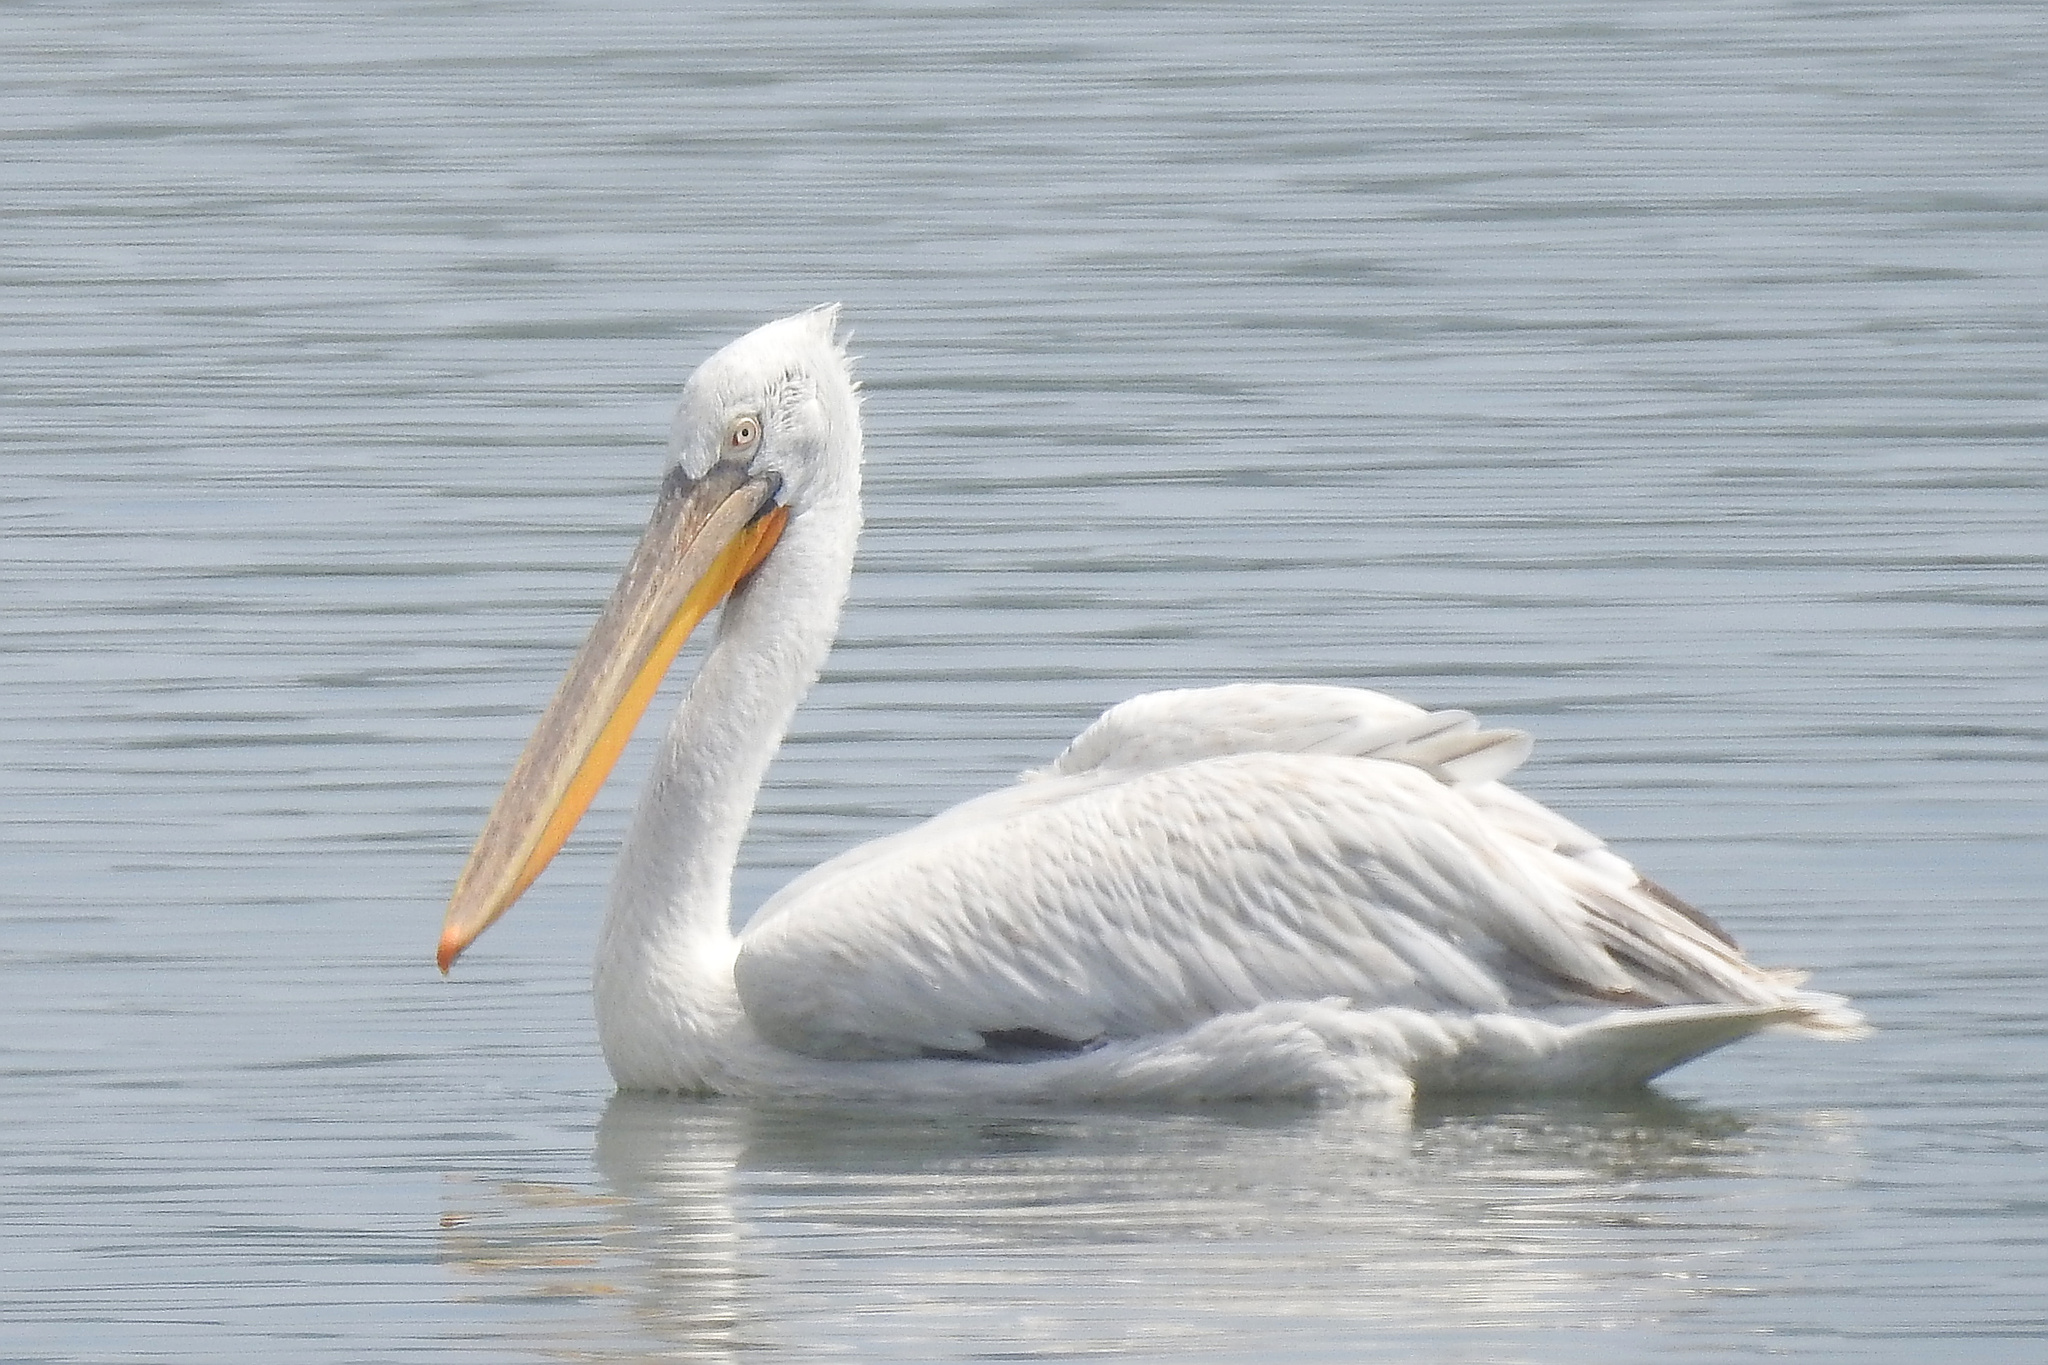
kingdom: Animalia
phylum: Chordata
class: Aves
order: Pelecaniformes
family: Pelecanidae
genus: Pelecanus
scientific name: Pelecanus crispus
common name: Dalmatian pelican
